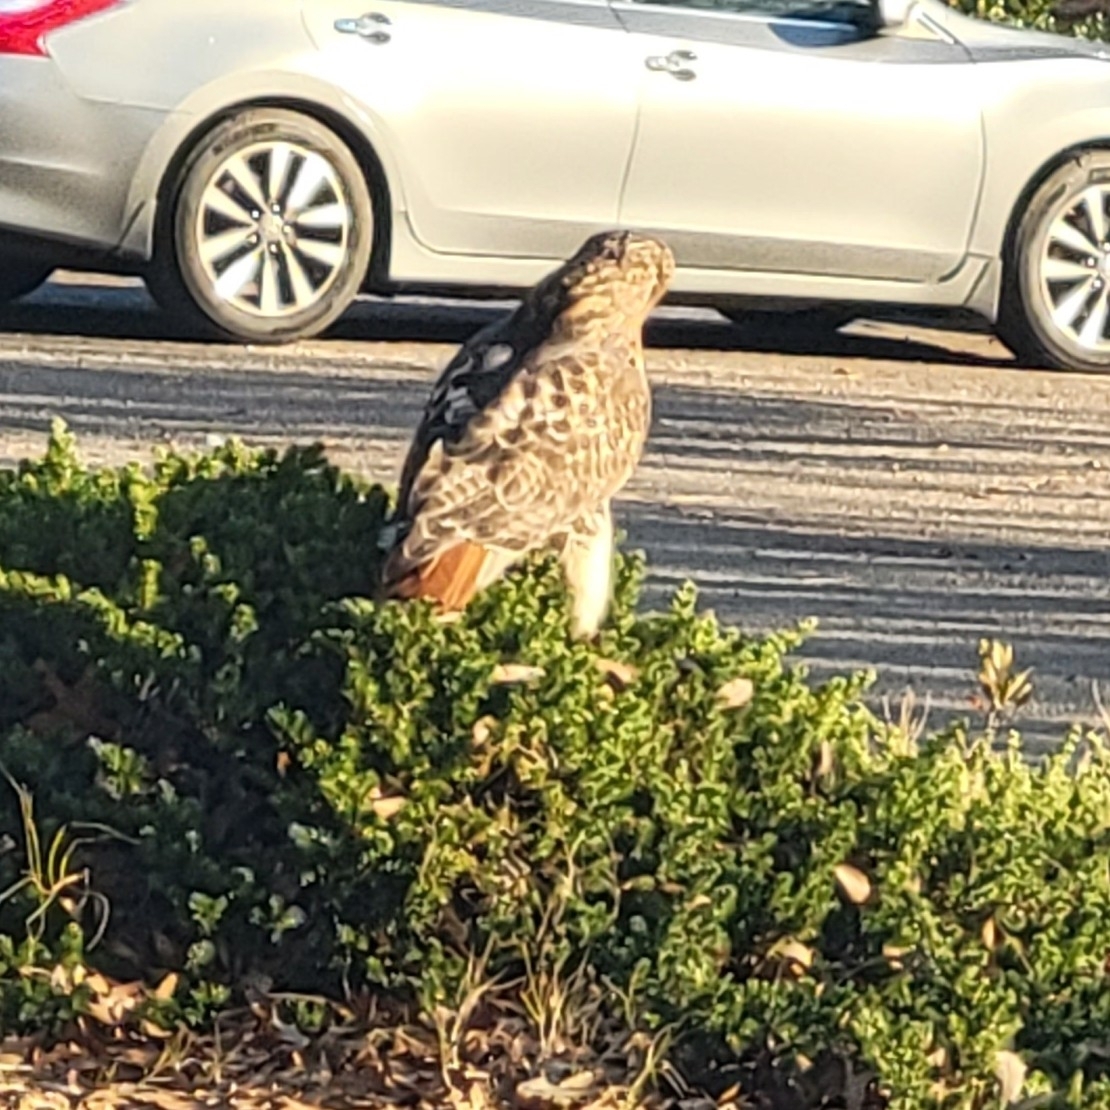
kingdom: Animalia
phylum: Chordata
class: Aves
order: Accipitriformes
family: Accipitridae
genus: Buteo
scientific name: Buteo jamaicensis
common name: Red-tailed hawk
